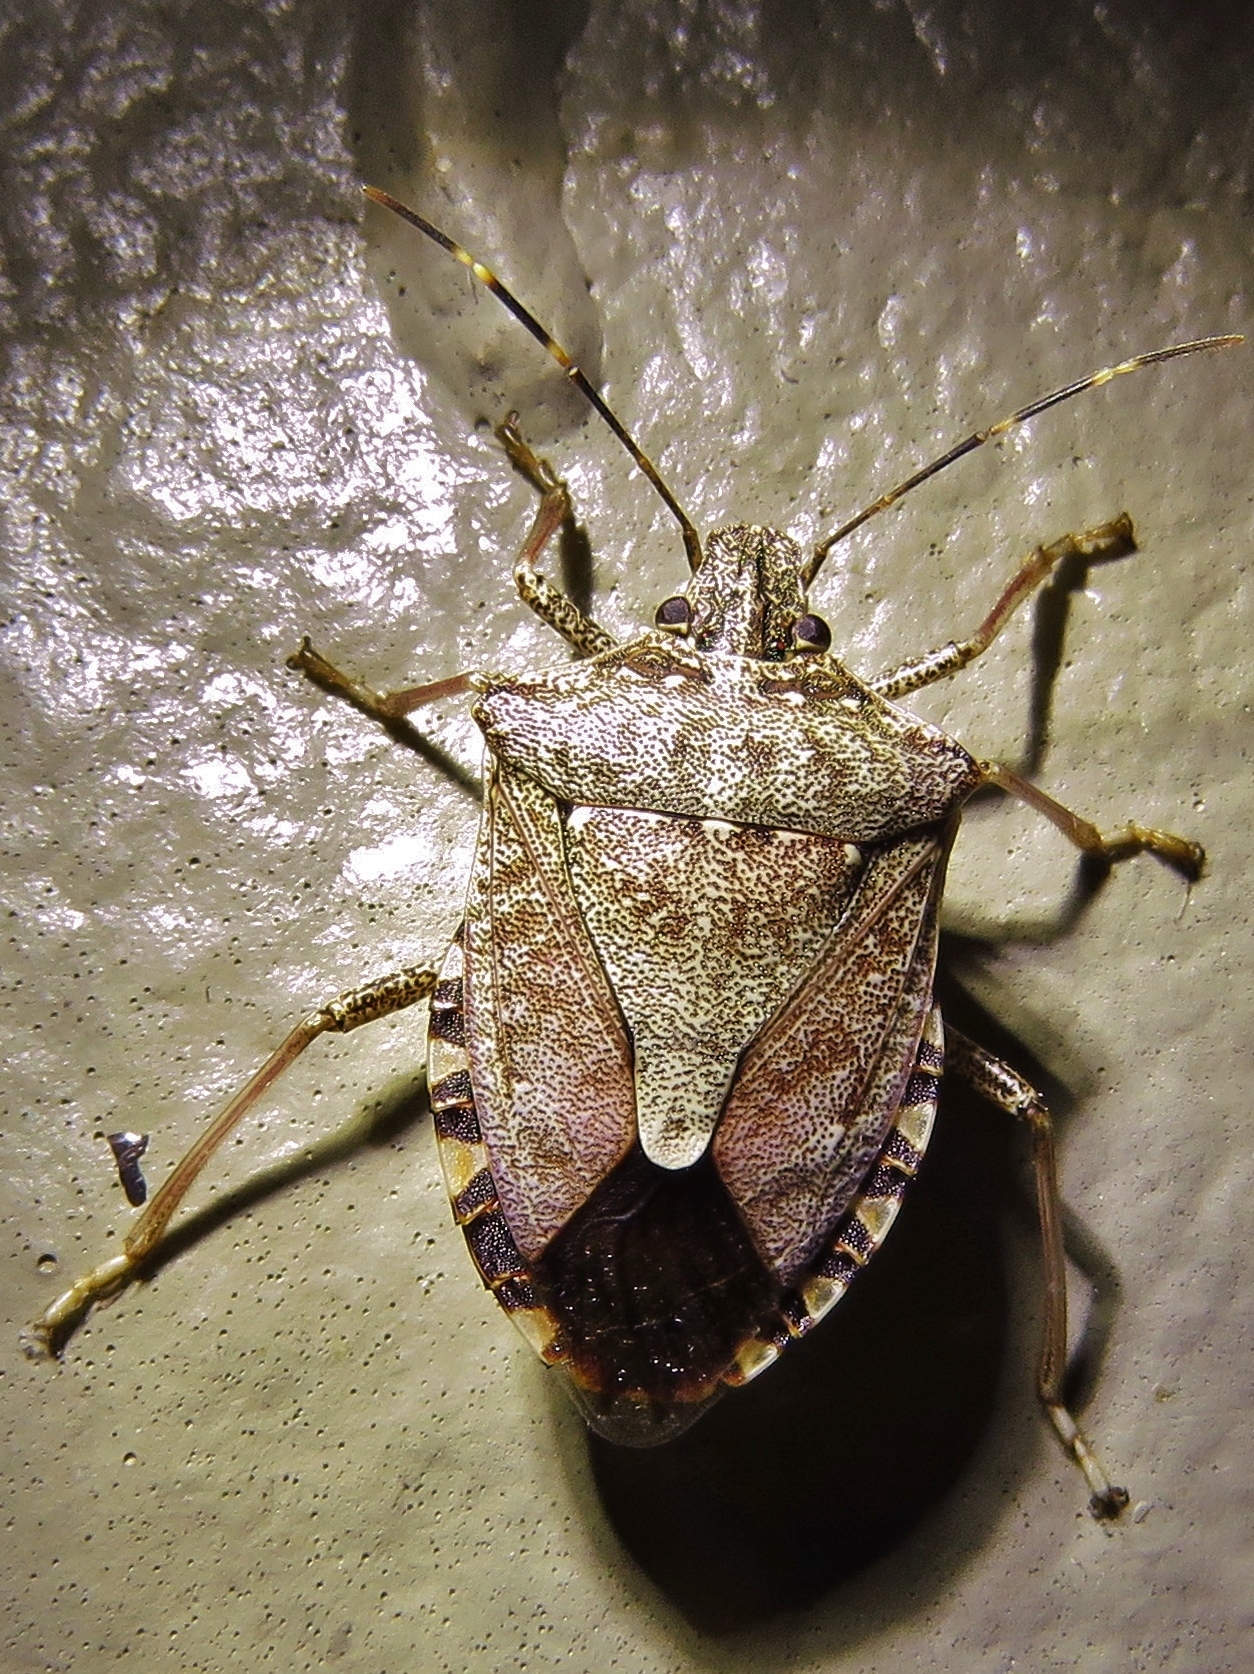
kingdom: Animalia
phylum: Arthropoda
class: Insecta
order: Hemiptera
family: Pentatomidae
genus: Halyomorpha
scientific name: Halyomorpha halys
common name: Brown marmorated stink bug
